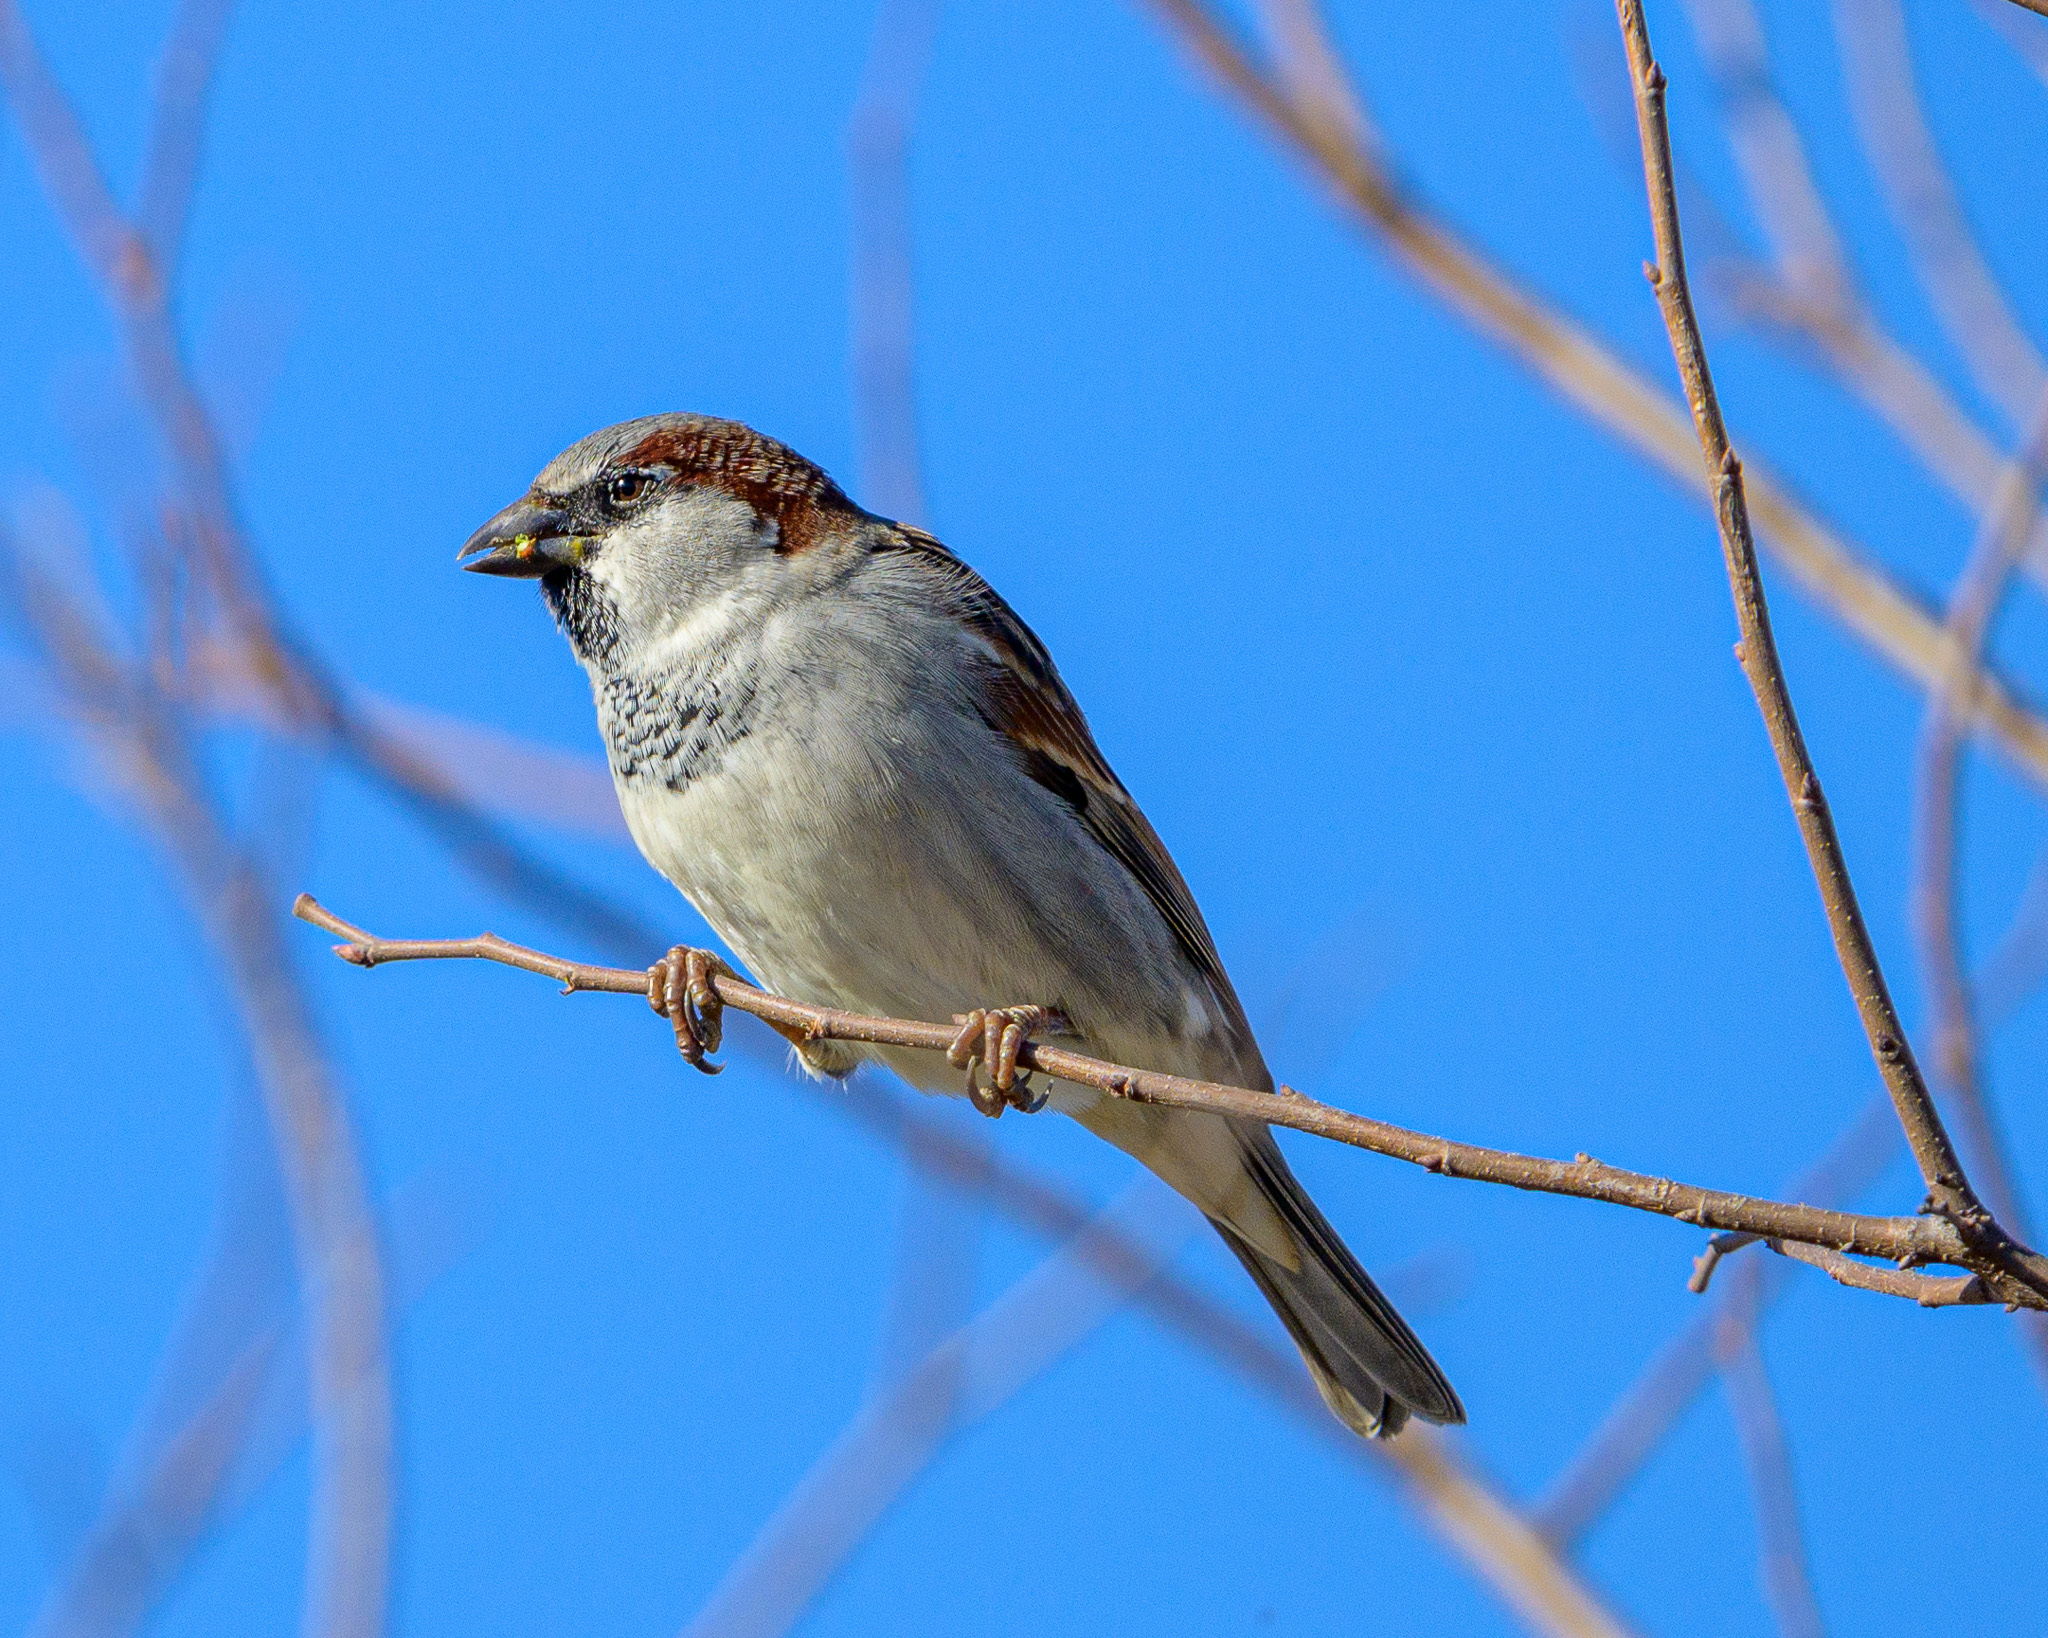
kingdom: Animalia
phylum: Chordata
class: Aves
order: Passeriformes
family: Passeridae
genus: Passer
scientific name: Passer domesticus
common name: House sparrow
